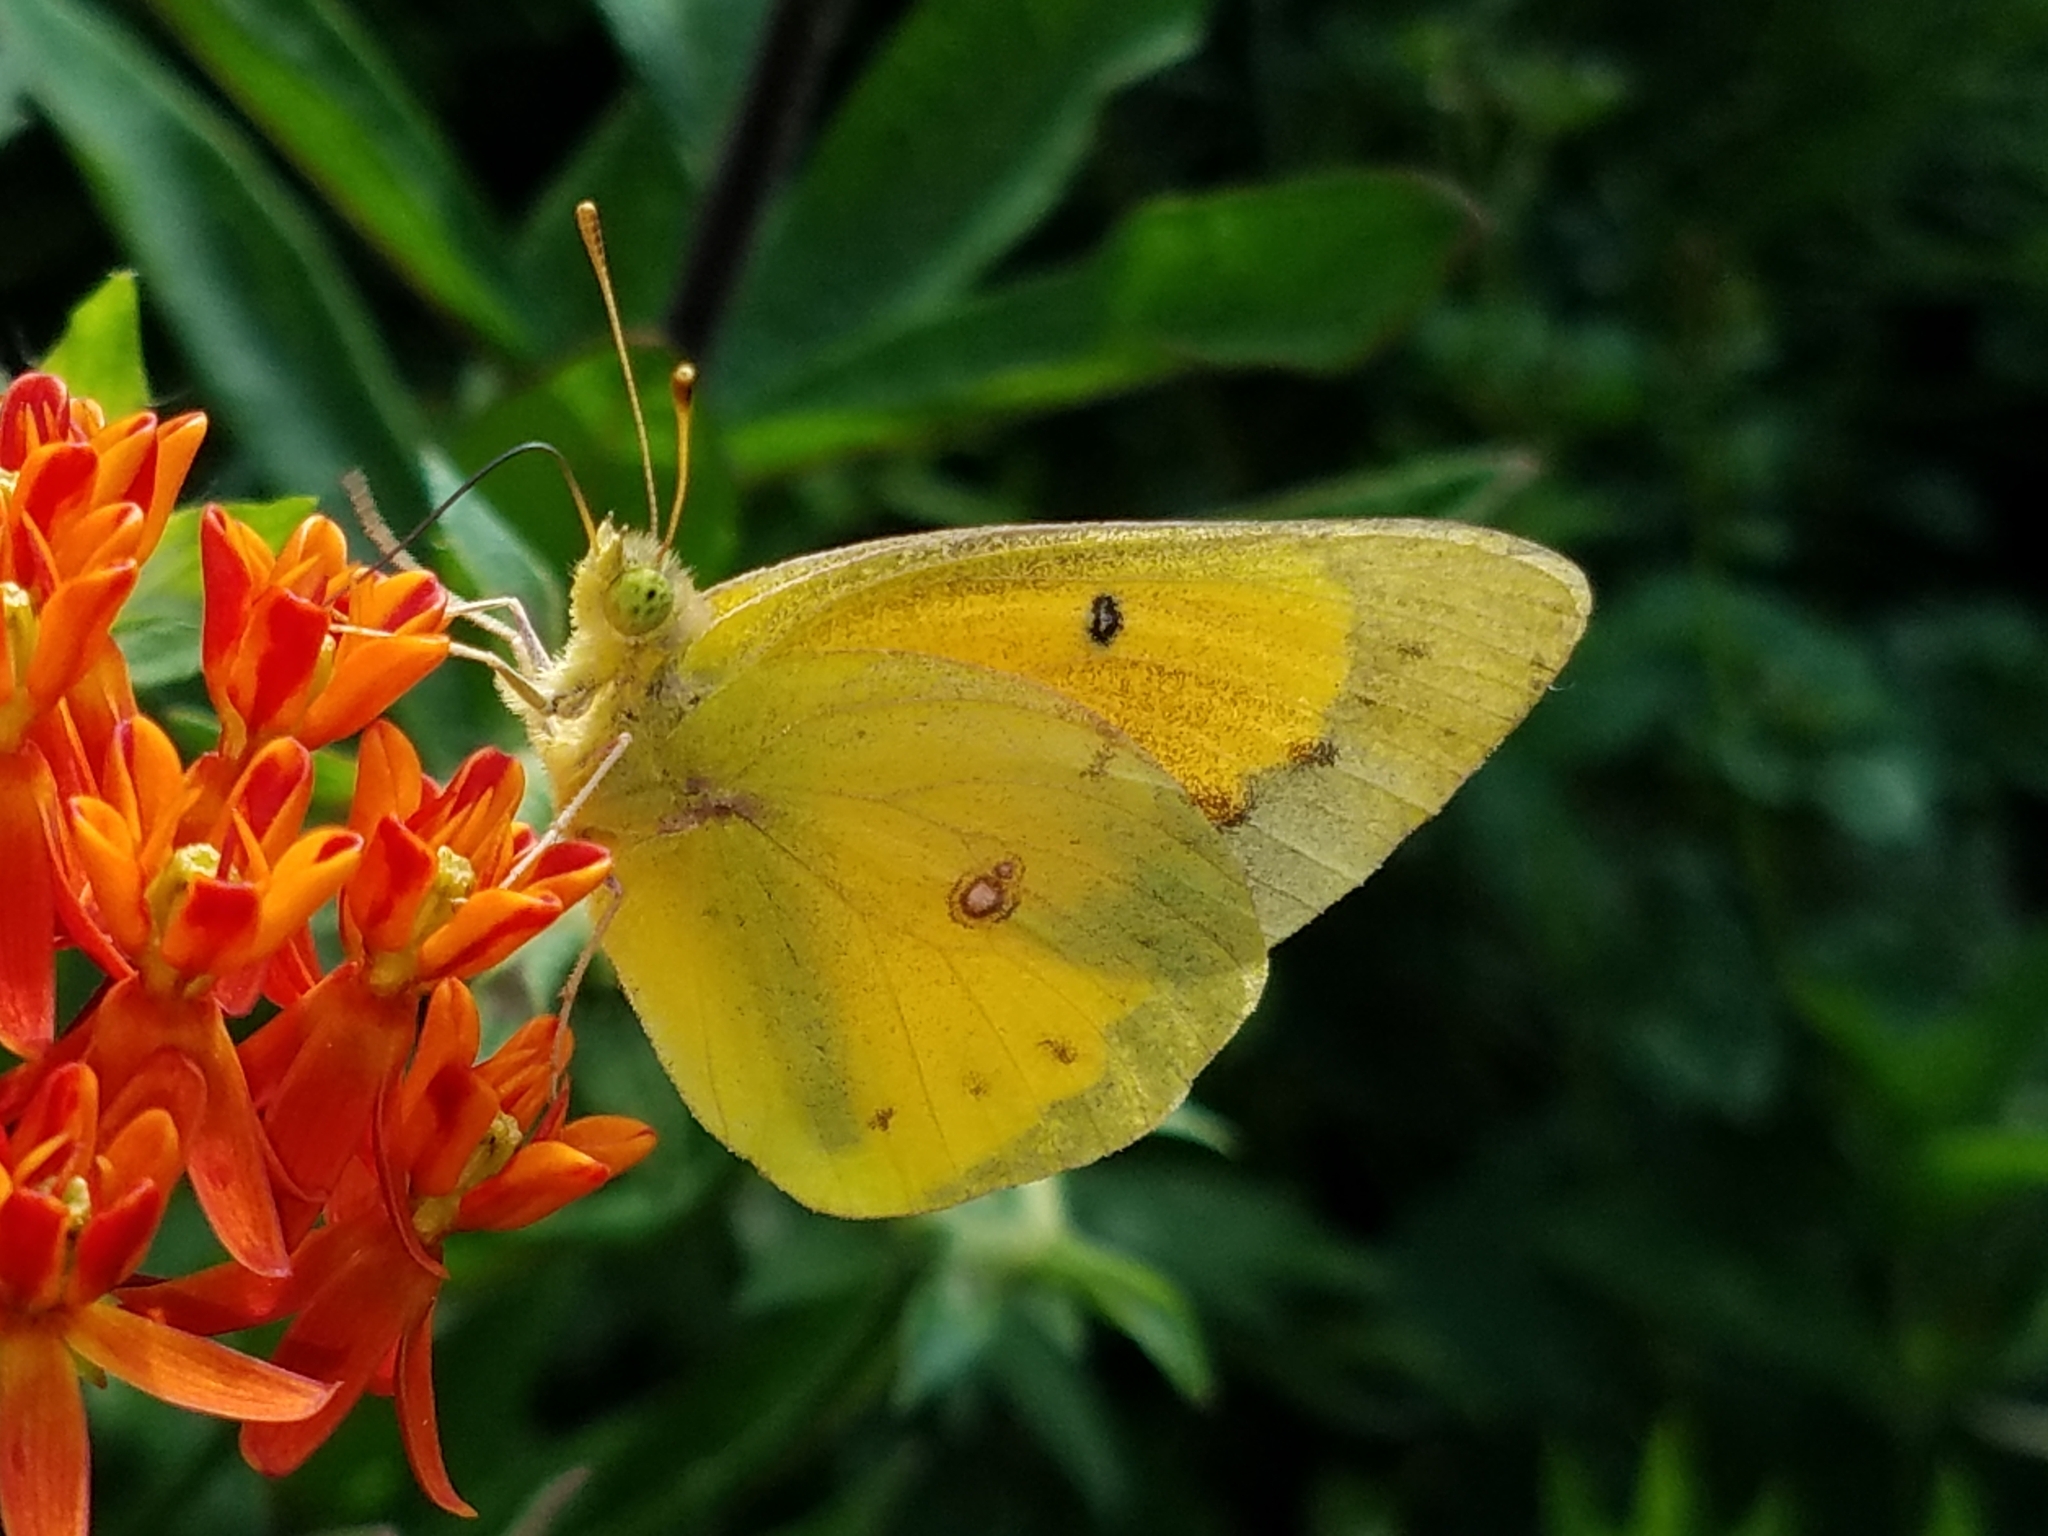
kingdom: Animalia
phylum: Arthropoda
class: Insecta
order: Lepidoptera
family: Pieridae
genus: Colias
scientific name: Colias eurytheme
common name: Alfalfa butterfly
